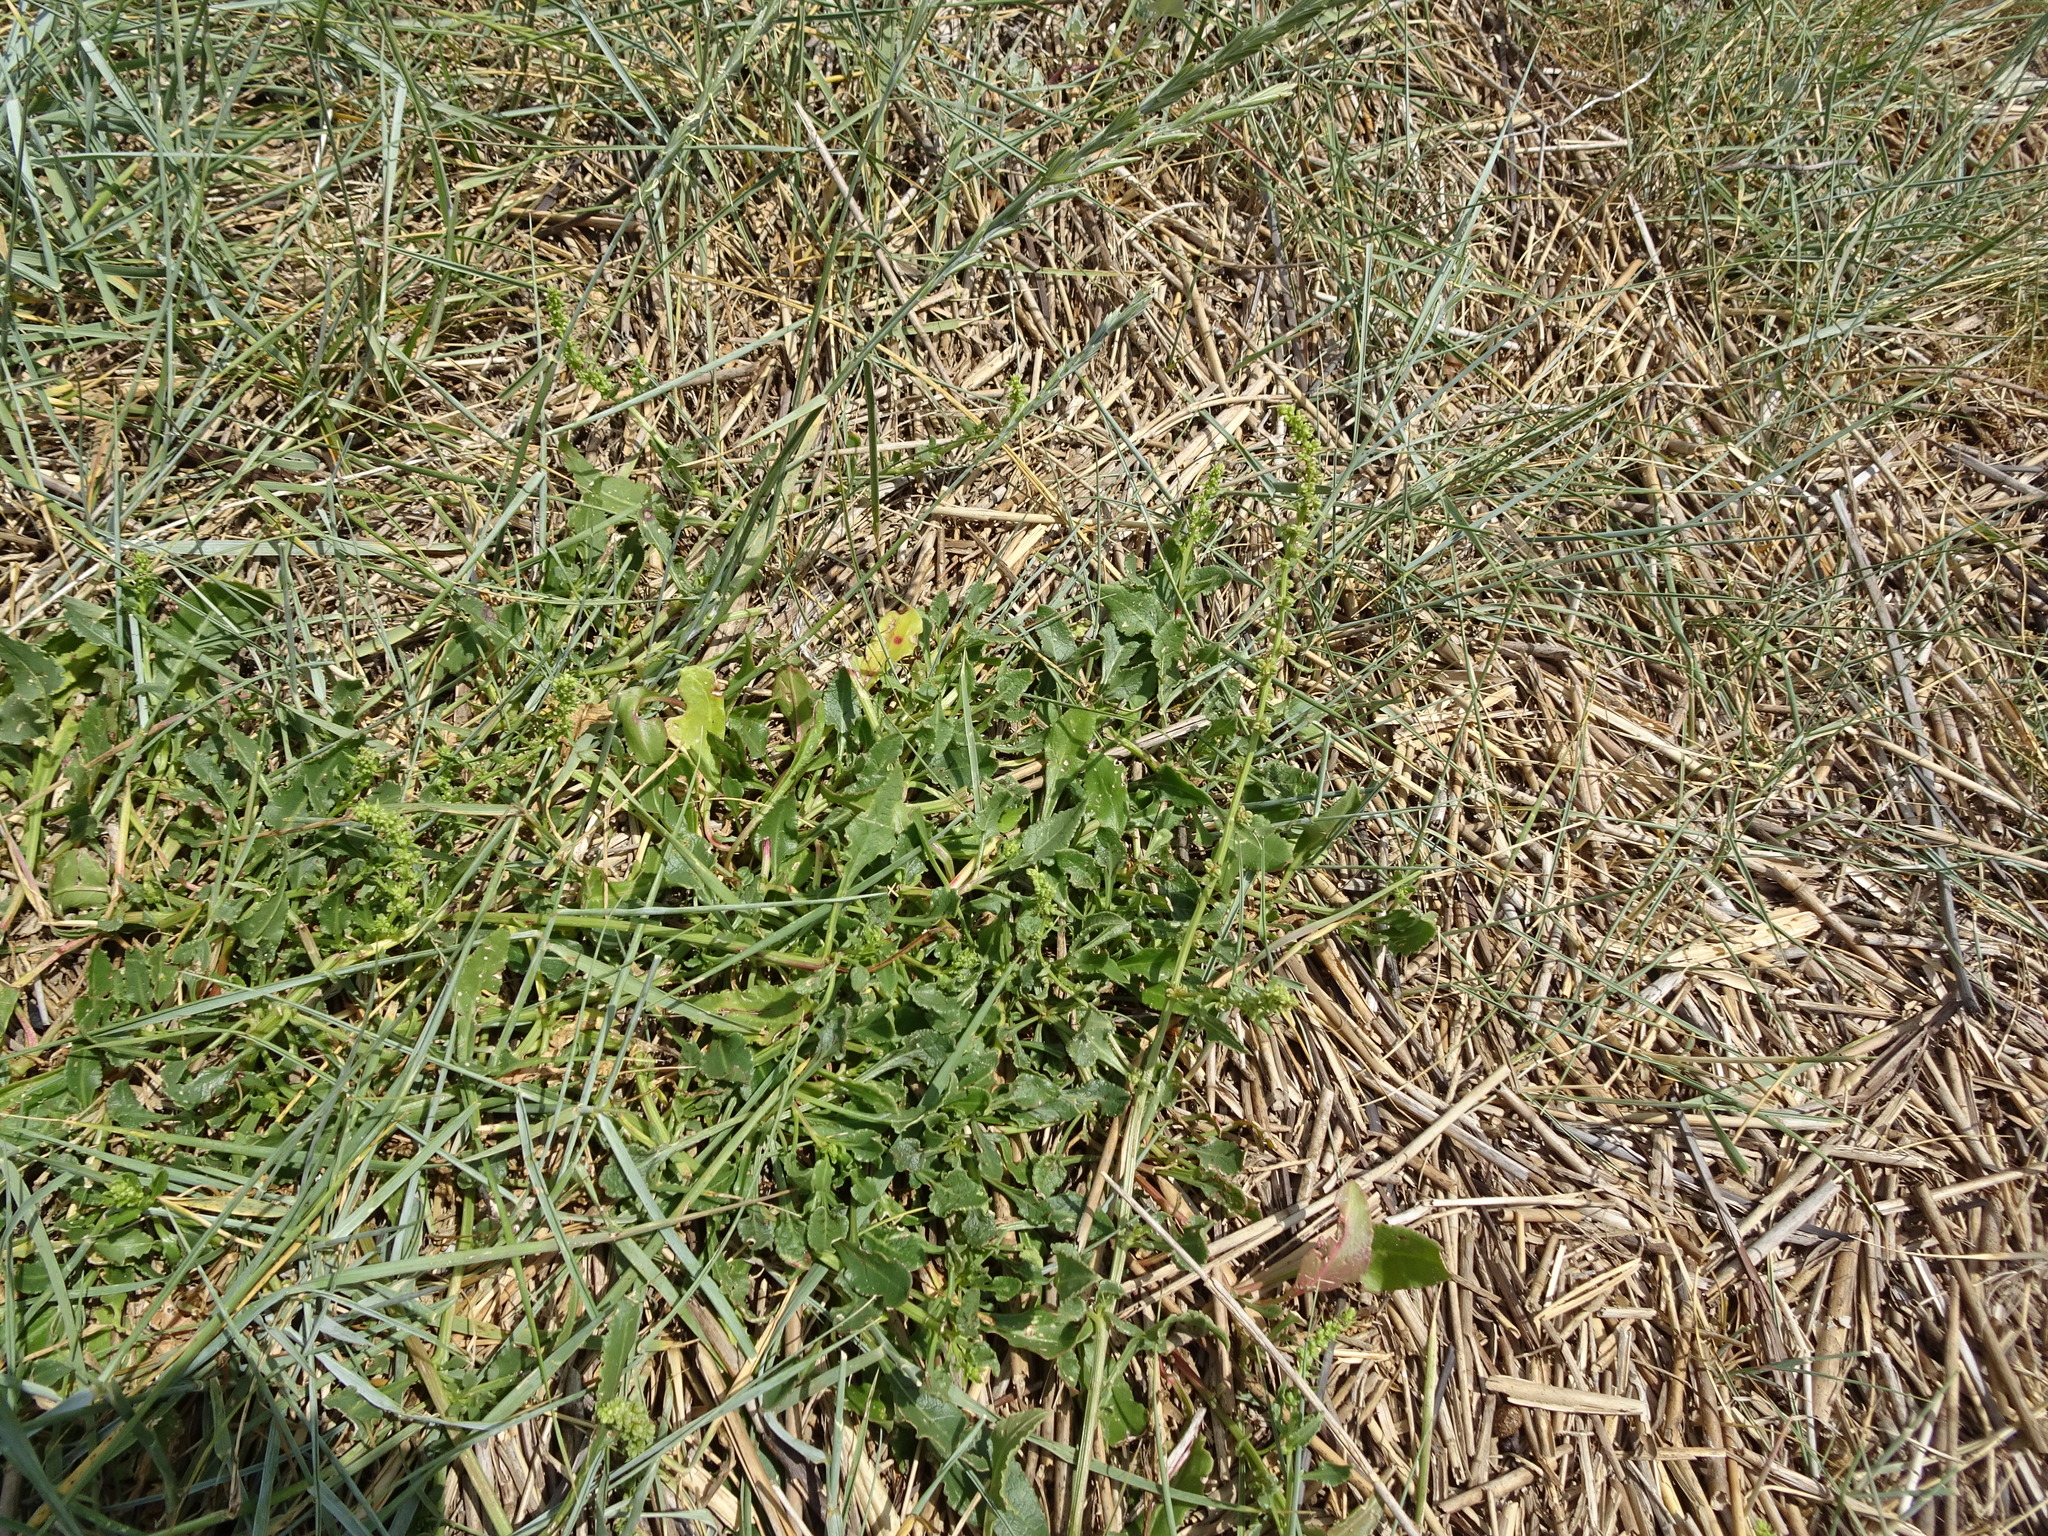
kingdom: Plantae
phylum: Tracheophyta
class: Magnoliopsida
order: Caryophyllales
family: Amaranthaceae
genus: Beta
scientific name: Beta vulgaris
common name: Beet
